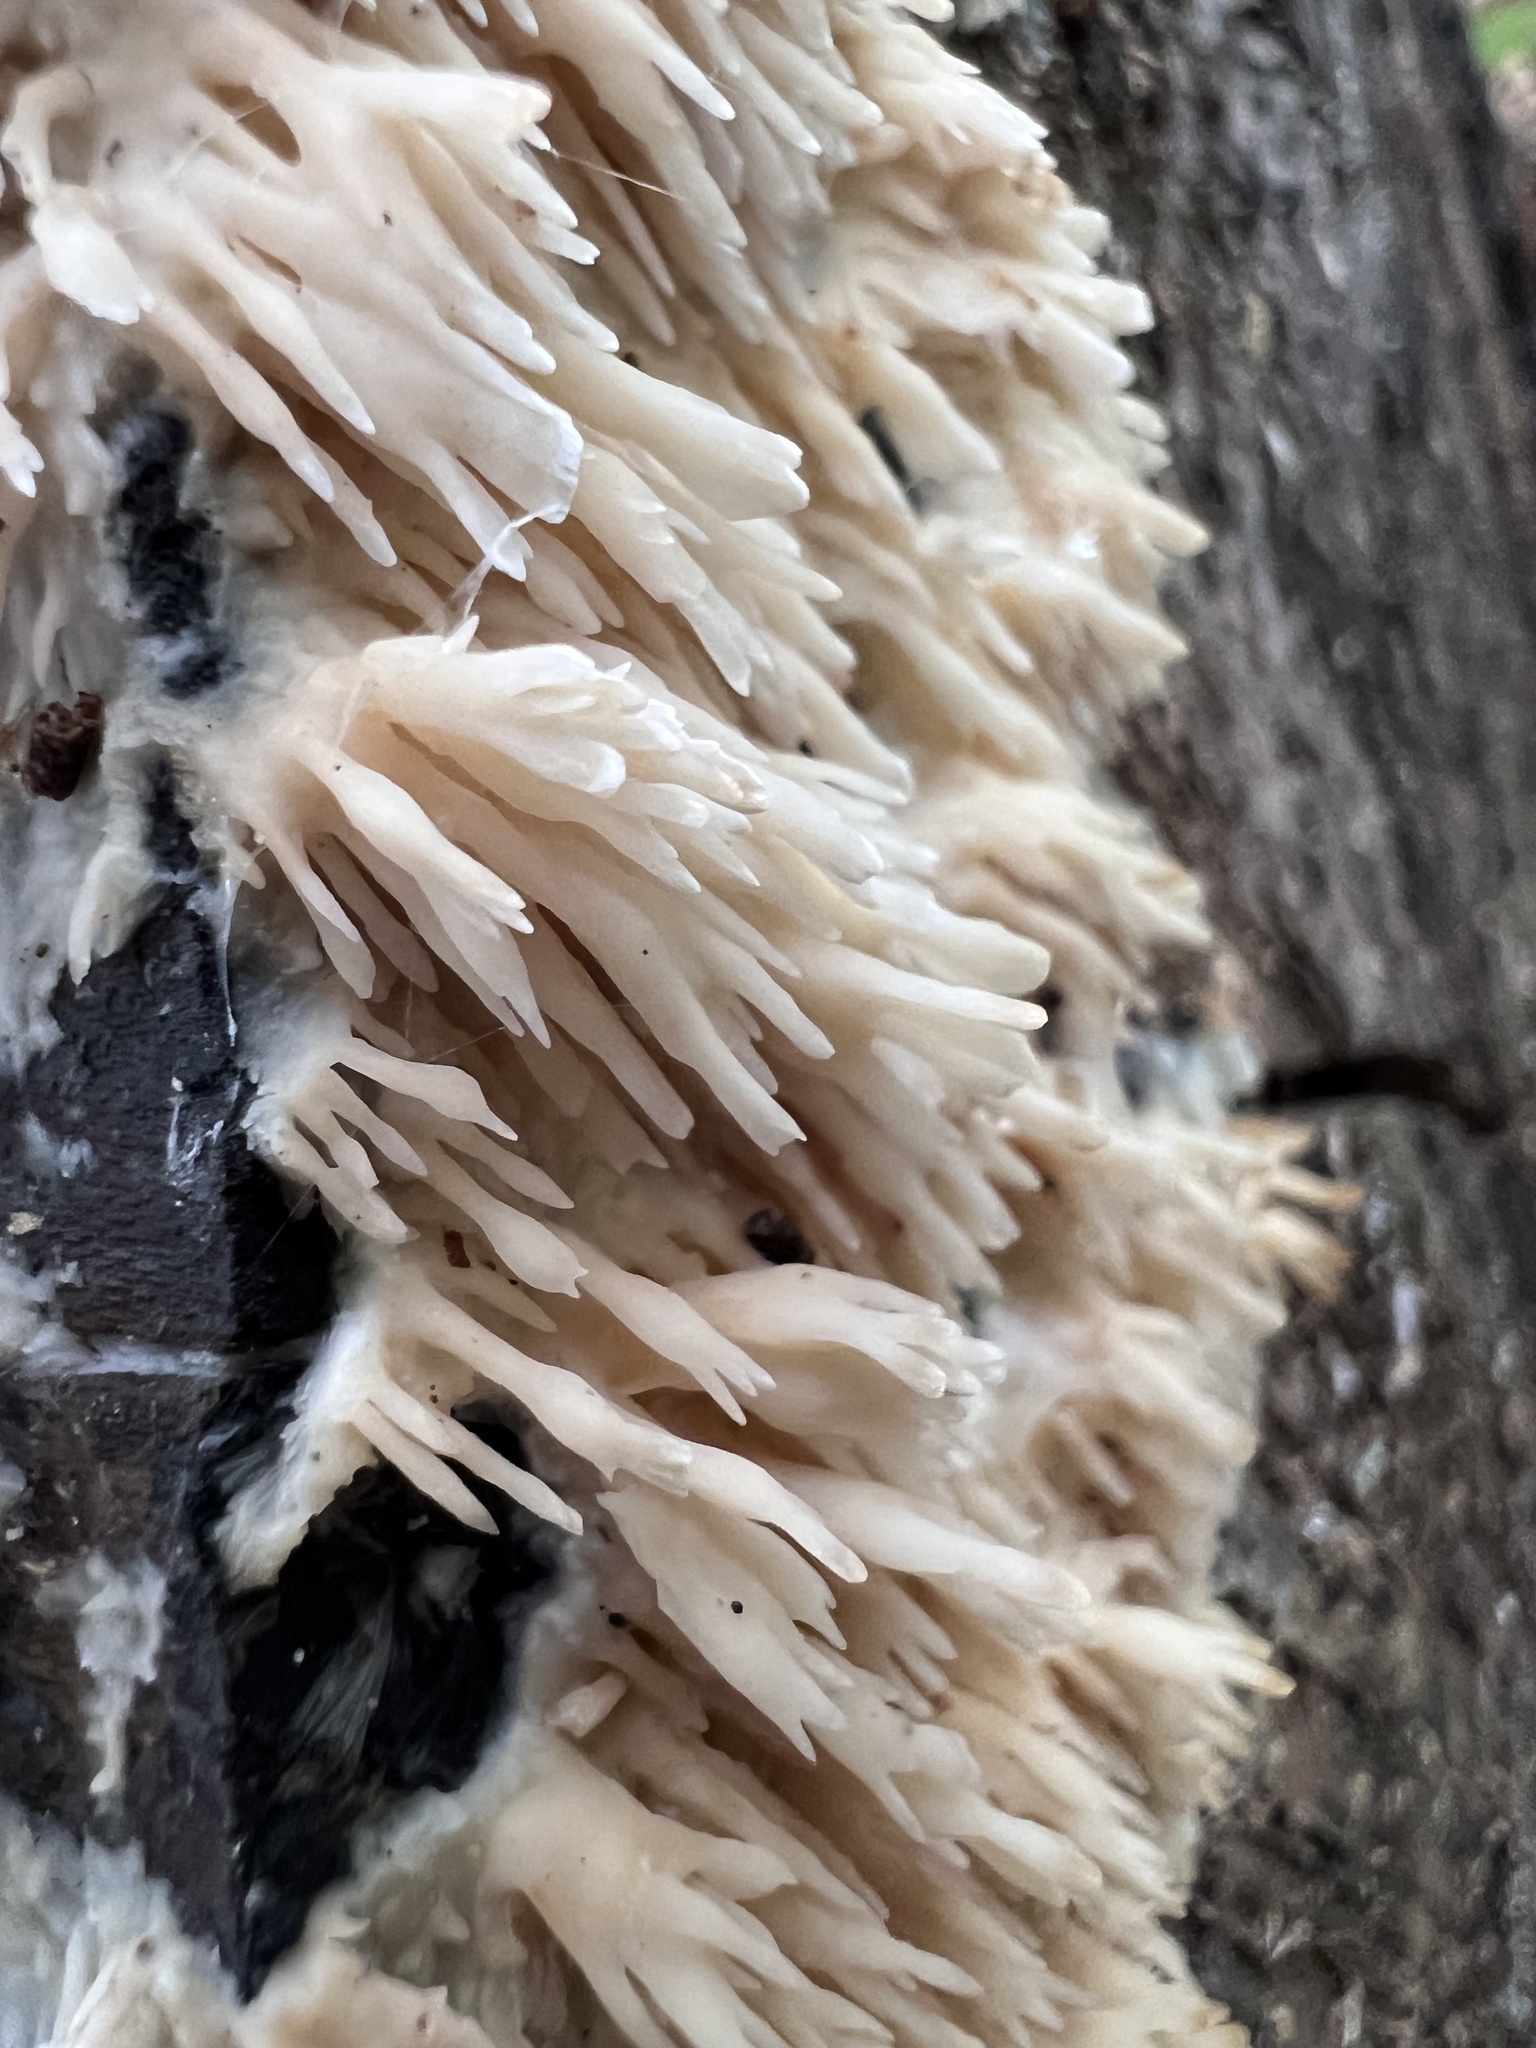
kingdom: Fungi
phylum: Basidiomycota
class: Agaricomycetes
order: Agaricales
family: Radulomycetaceae
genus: Radulomyces
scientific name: Radulomyces copelandii
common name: Asian beauty
